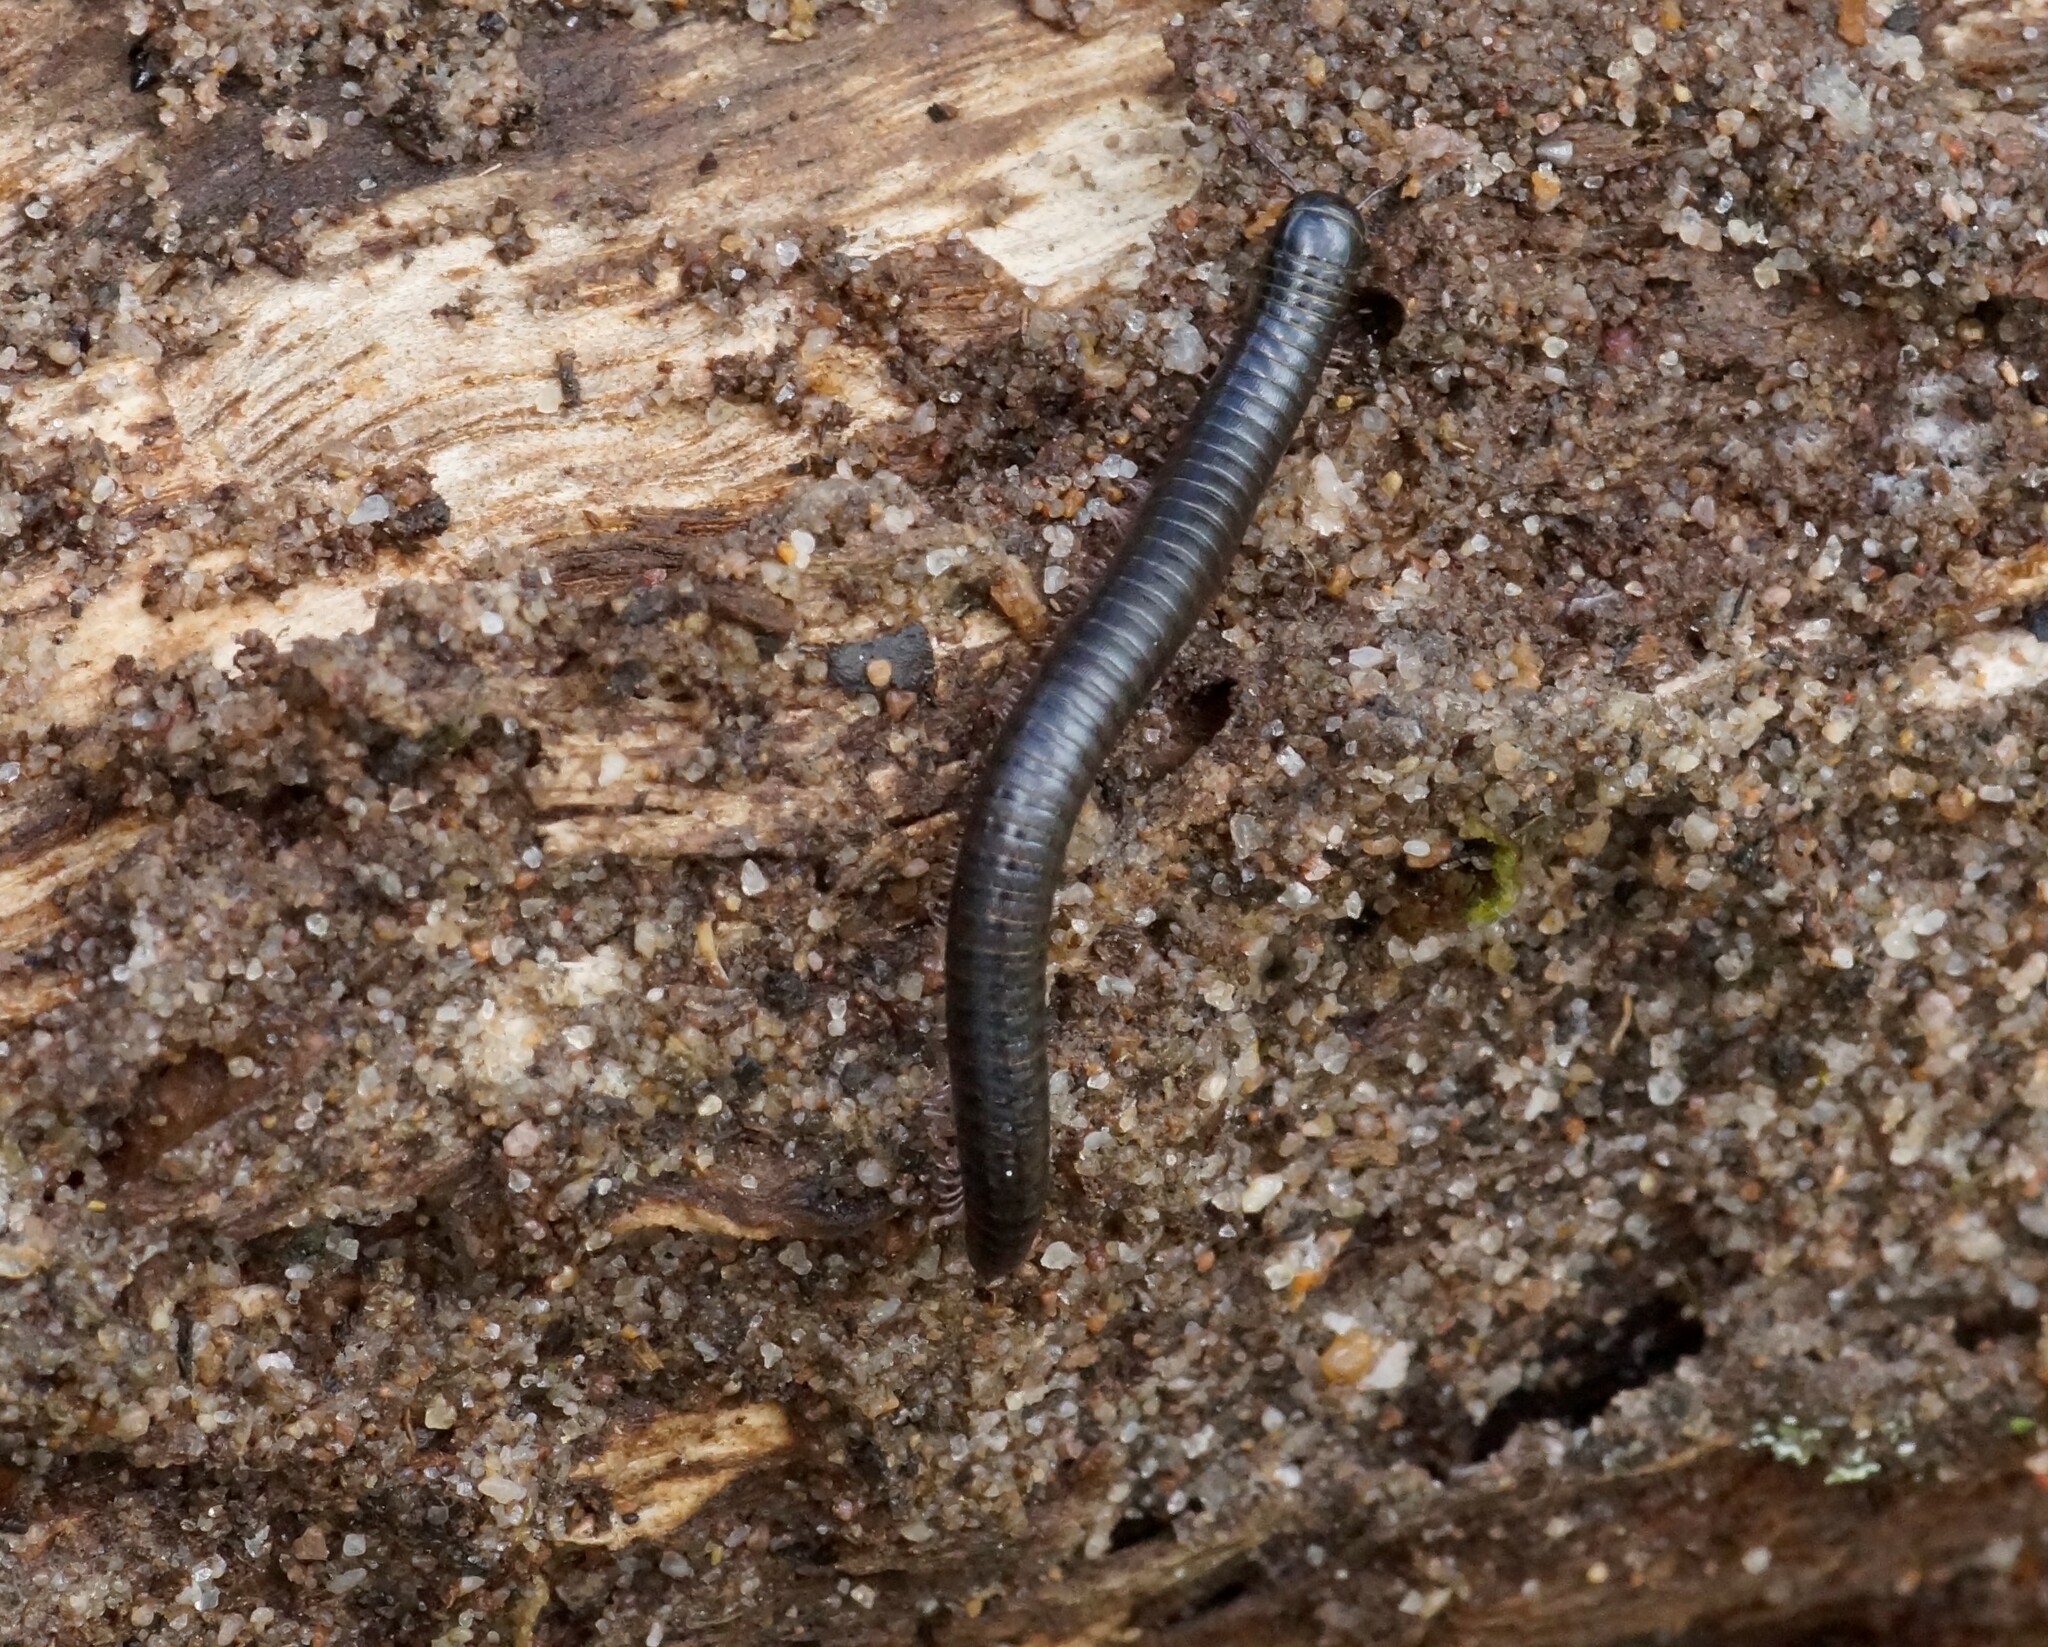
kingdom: Animalia
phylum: Arthropoda
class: Diplopoda
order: Julida
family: Julidae
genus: Ommatoiulus
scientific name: Ommatoiulus moreleti
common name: Portuguese millipede
